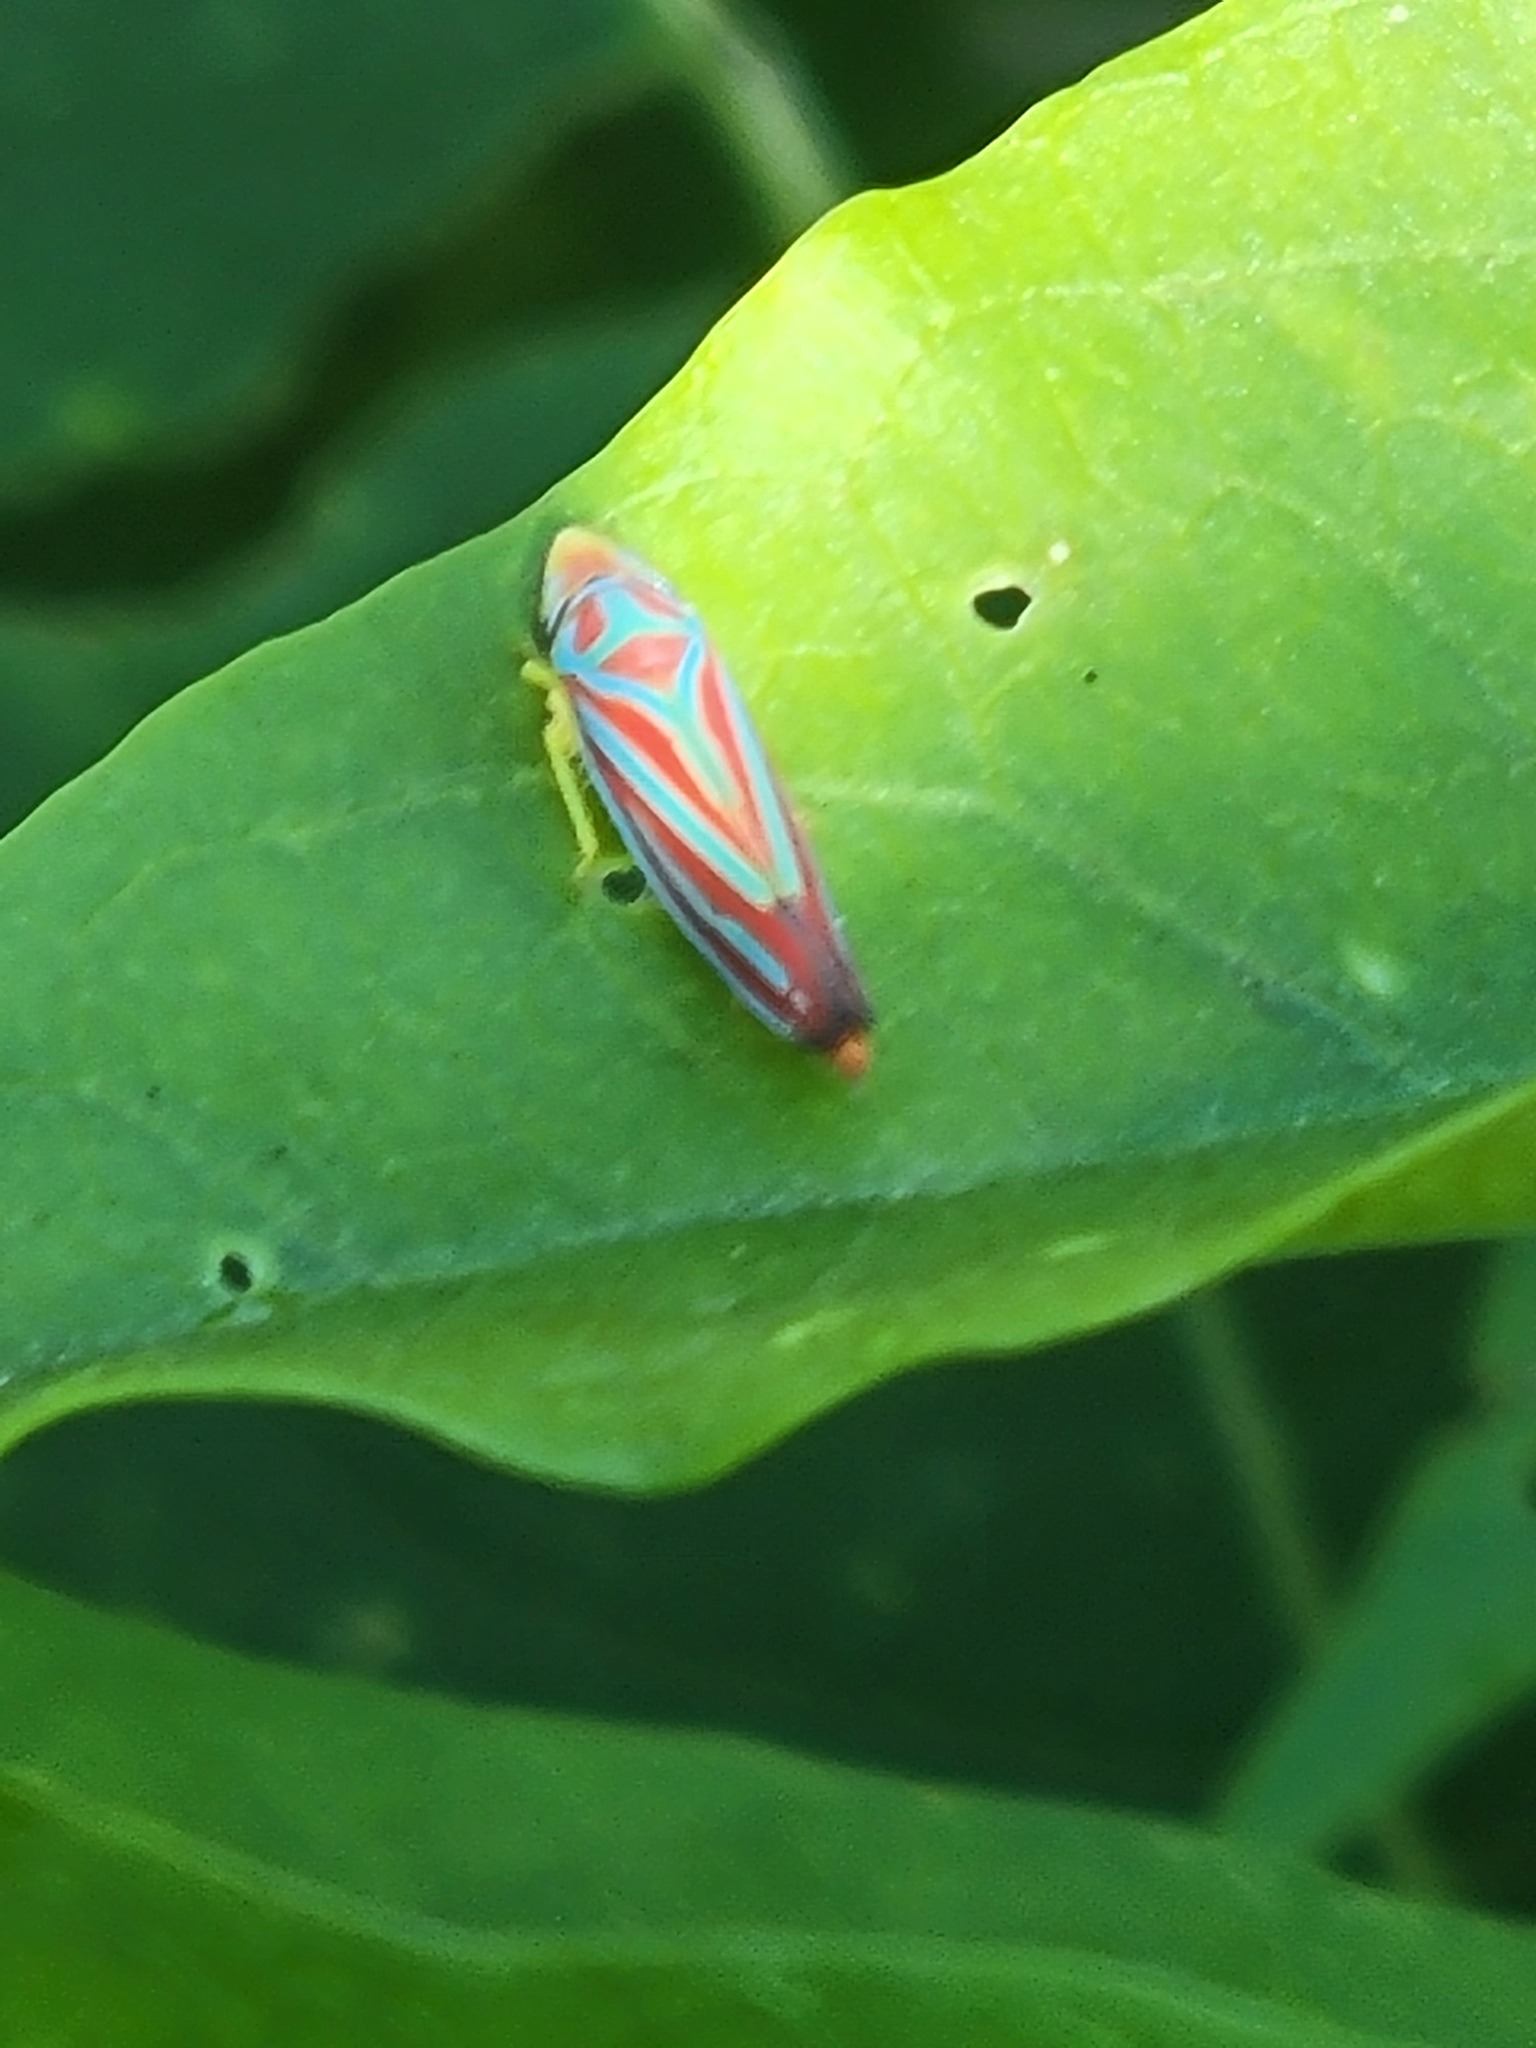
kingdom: Animalia
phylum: Arthropoda
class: Insecta
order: Hemiptera
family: Cicadellidae
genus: Graphocephala
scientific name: Graphocephala coccinea
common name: Candy-striped leafhopper
